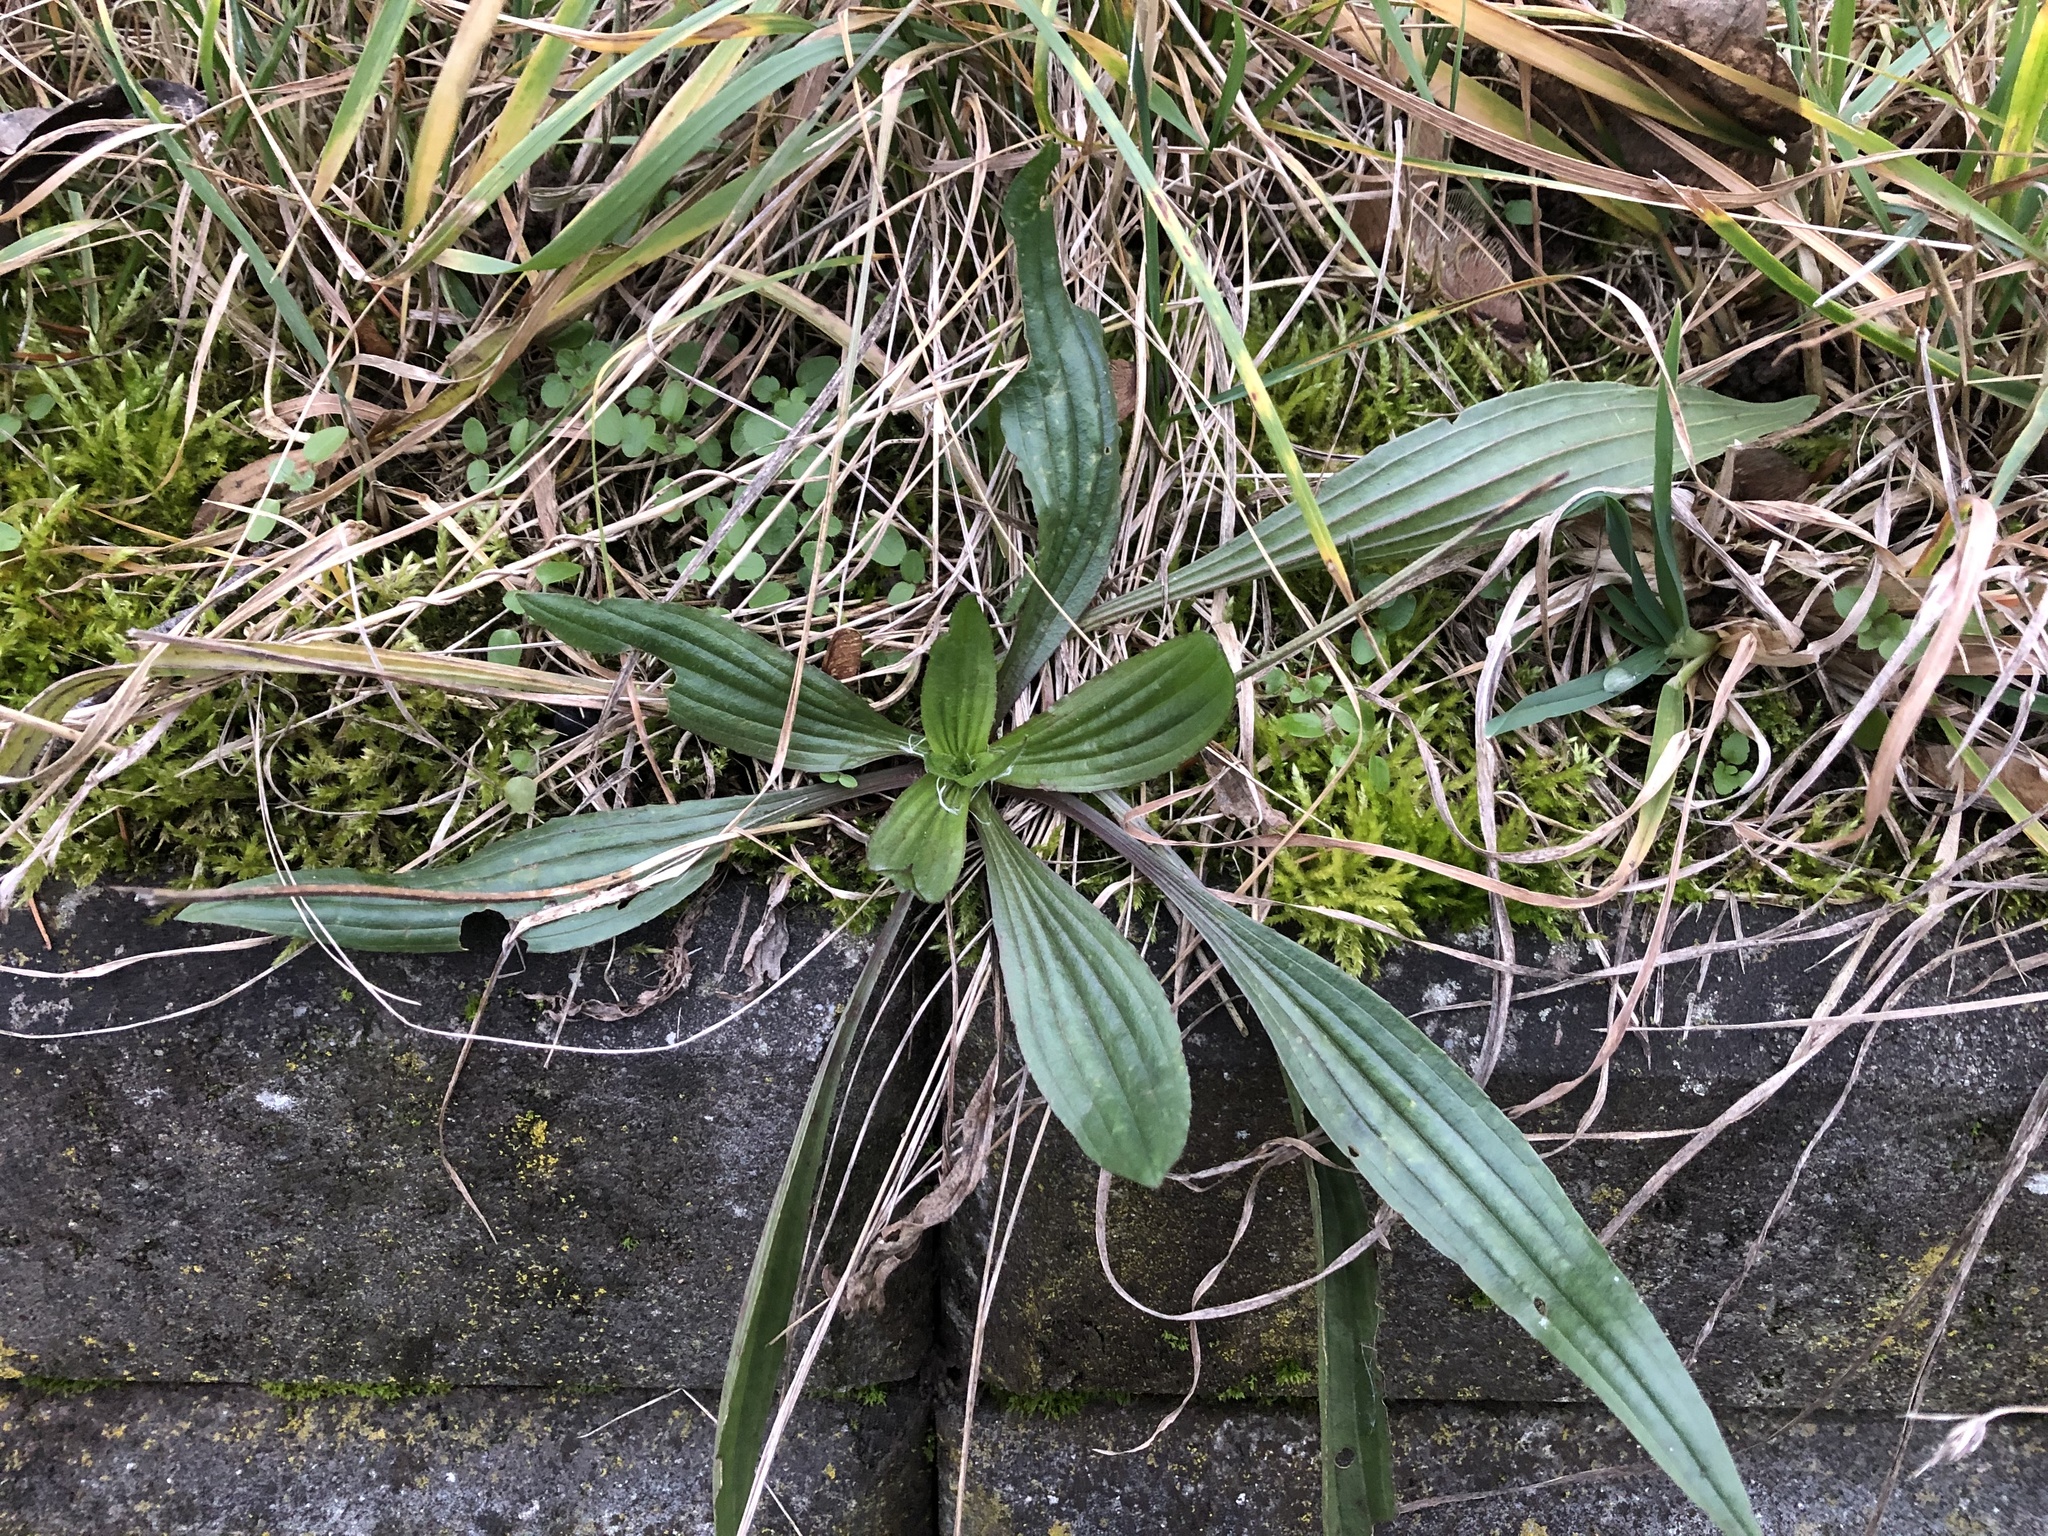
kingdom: Plantae
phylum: Tracheophyta
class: Magnoliopsida
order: Lamiales
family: Plantaginaceae
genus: Plantago
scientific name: Plantago lanceolata
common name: Ribwort plantain
